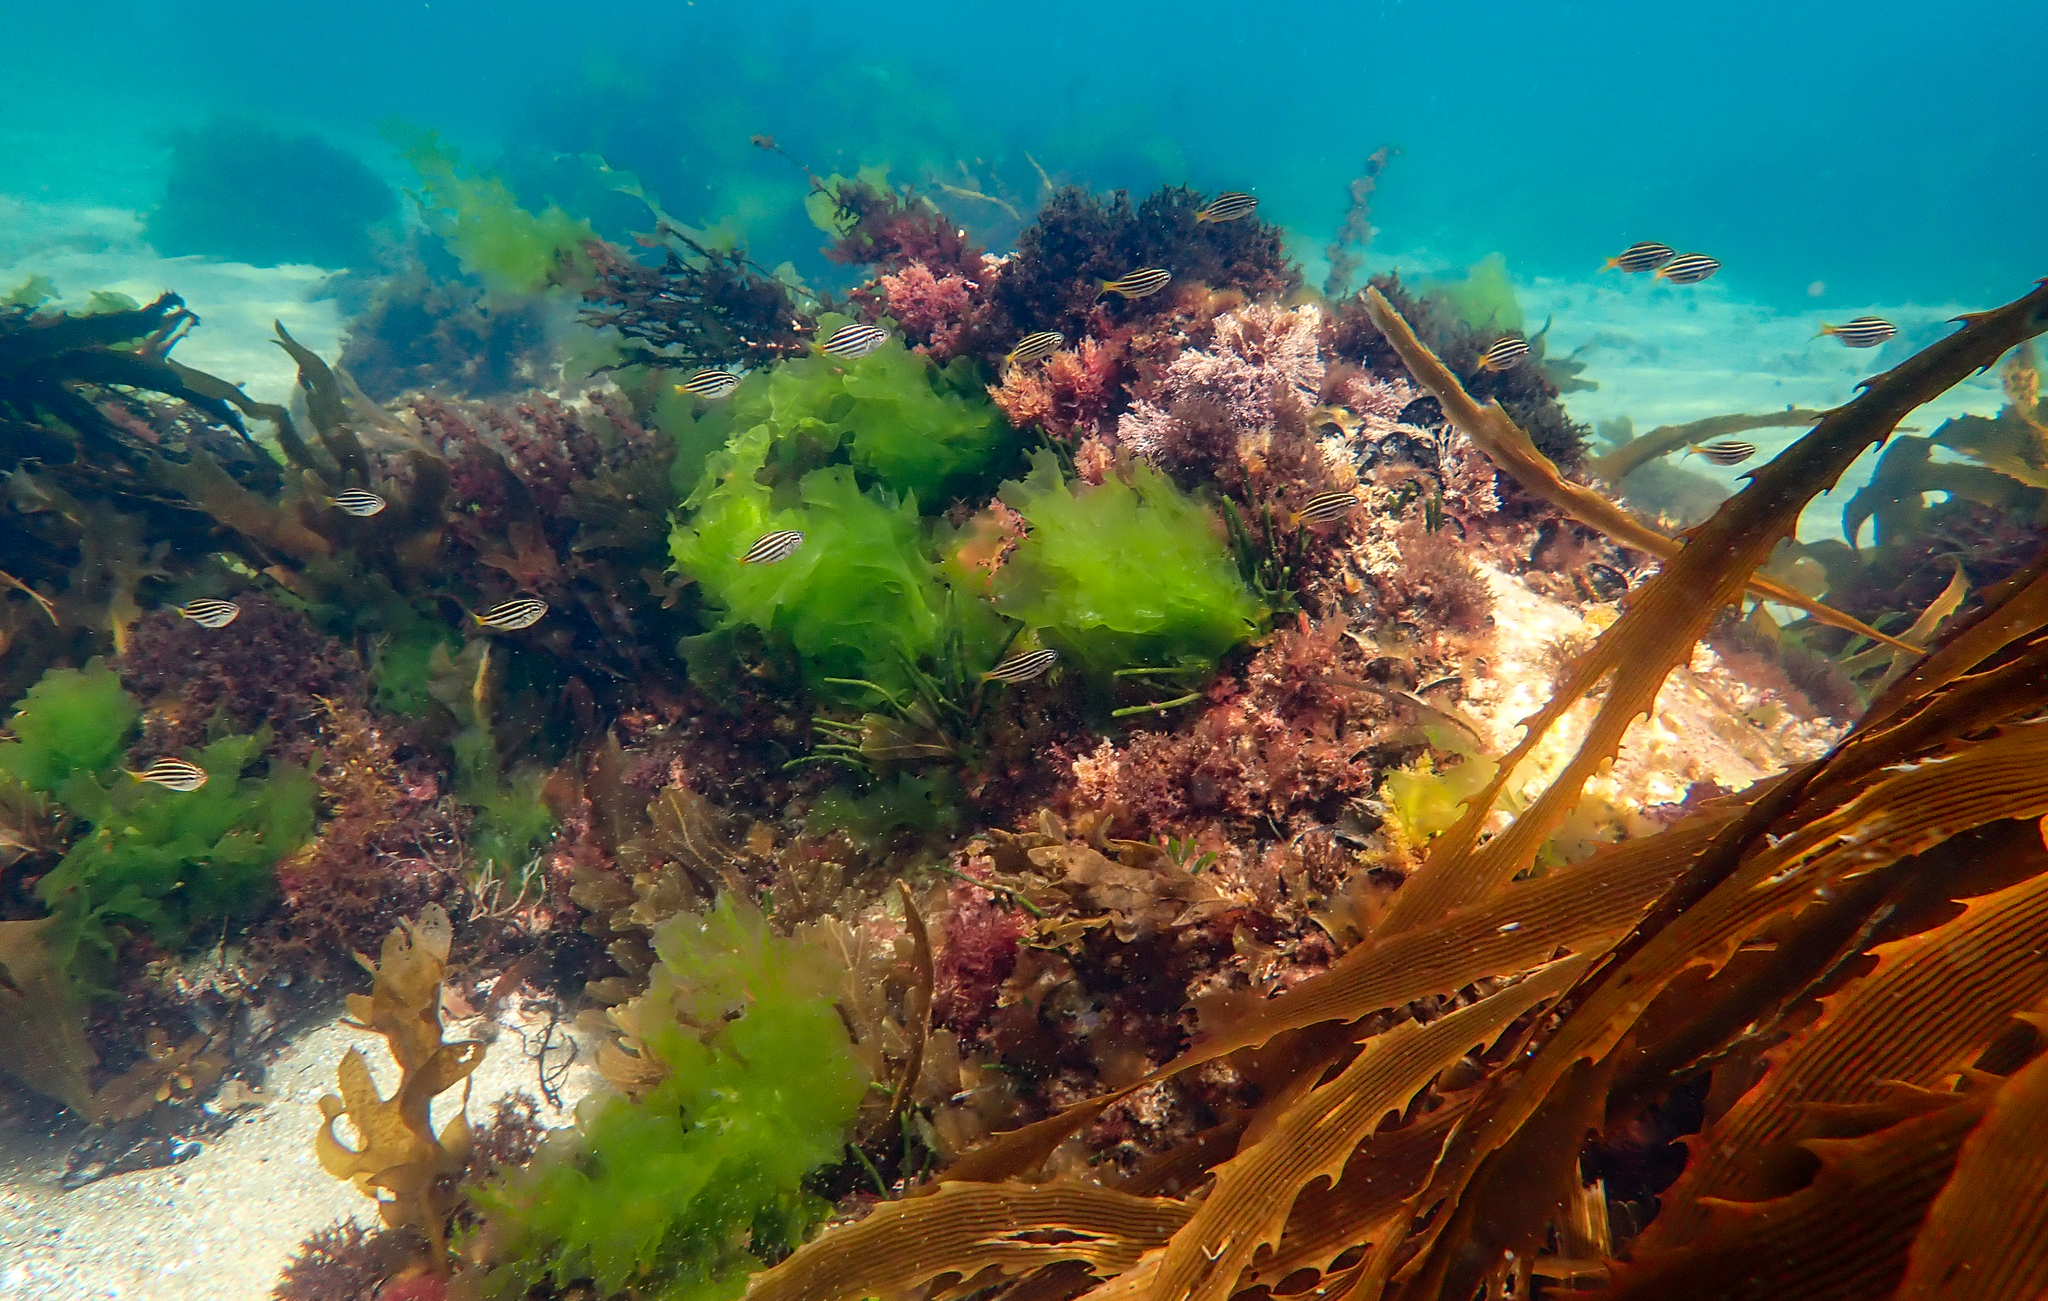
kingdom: Animalia
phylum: Chordata
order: Perciformes
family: Kyphosidae
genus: Atypichthys
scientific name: Atypichthys strigatus
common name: Australian mado
